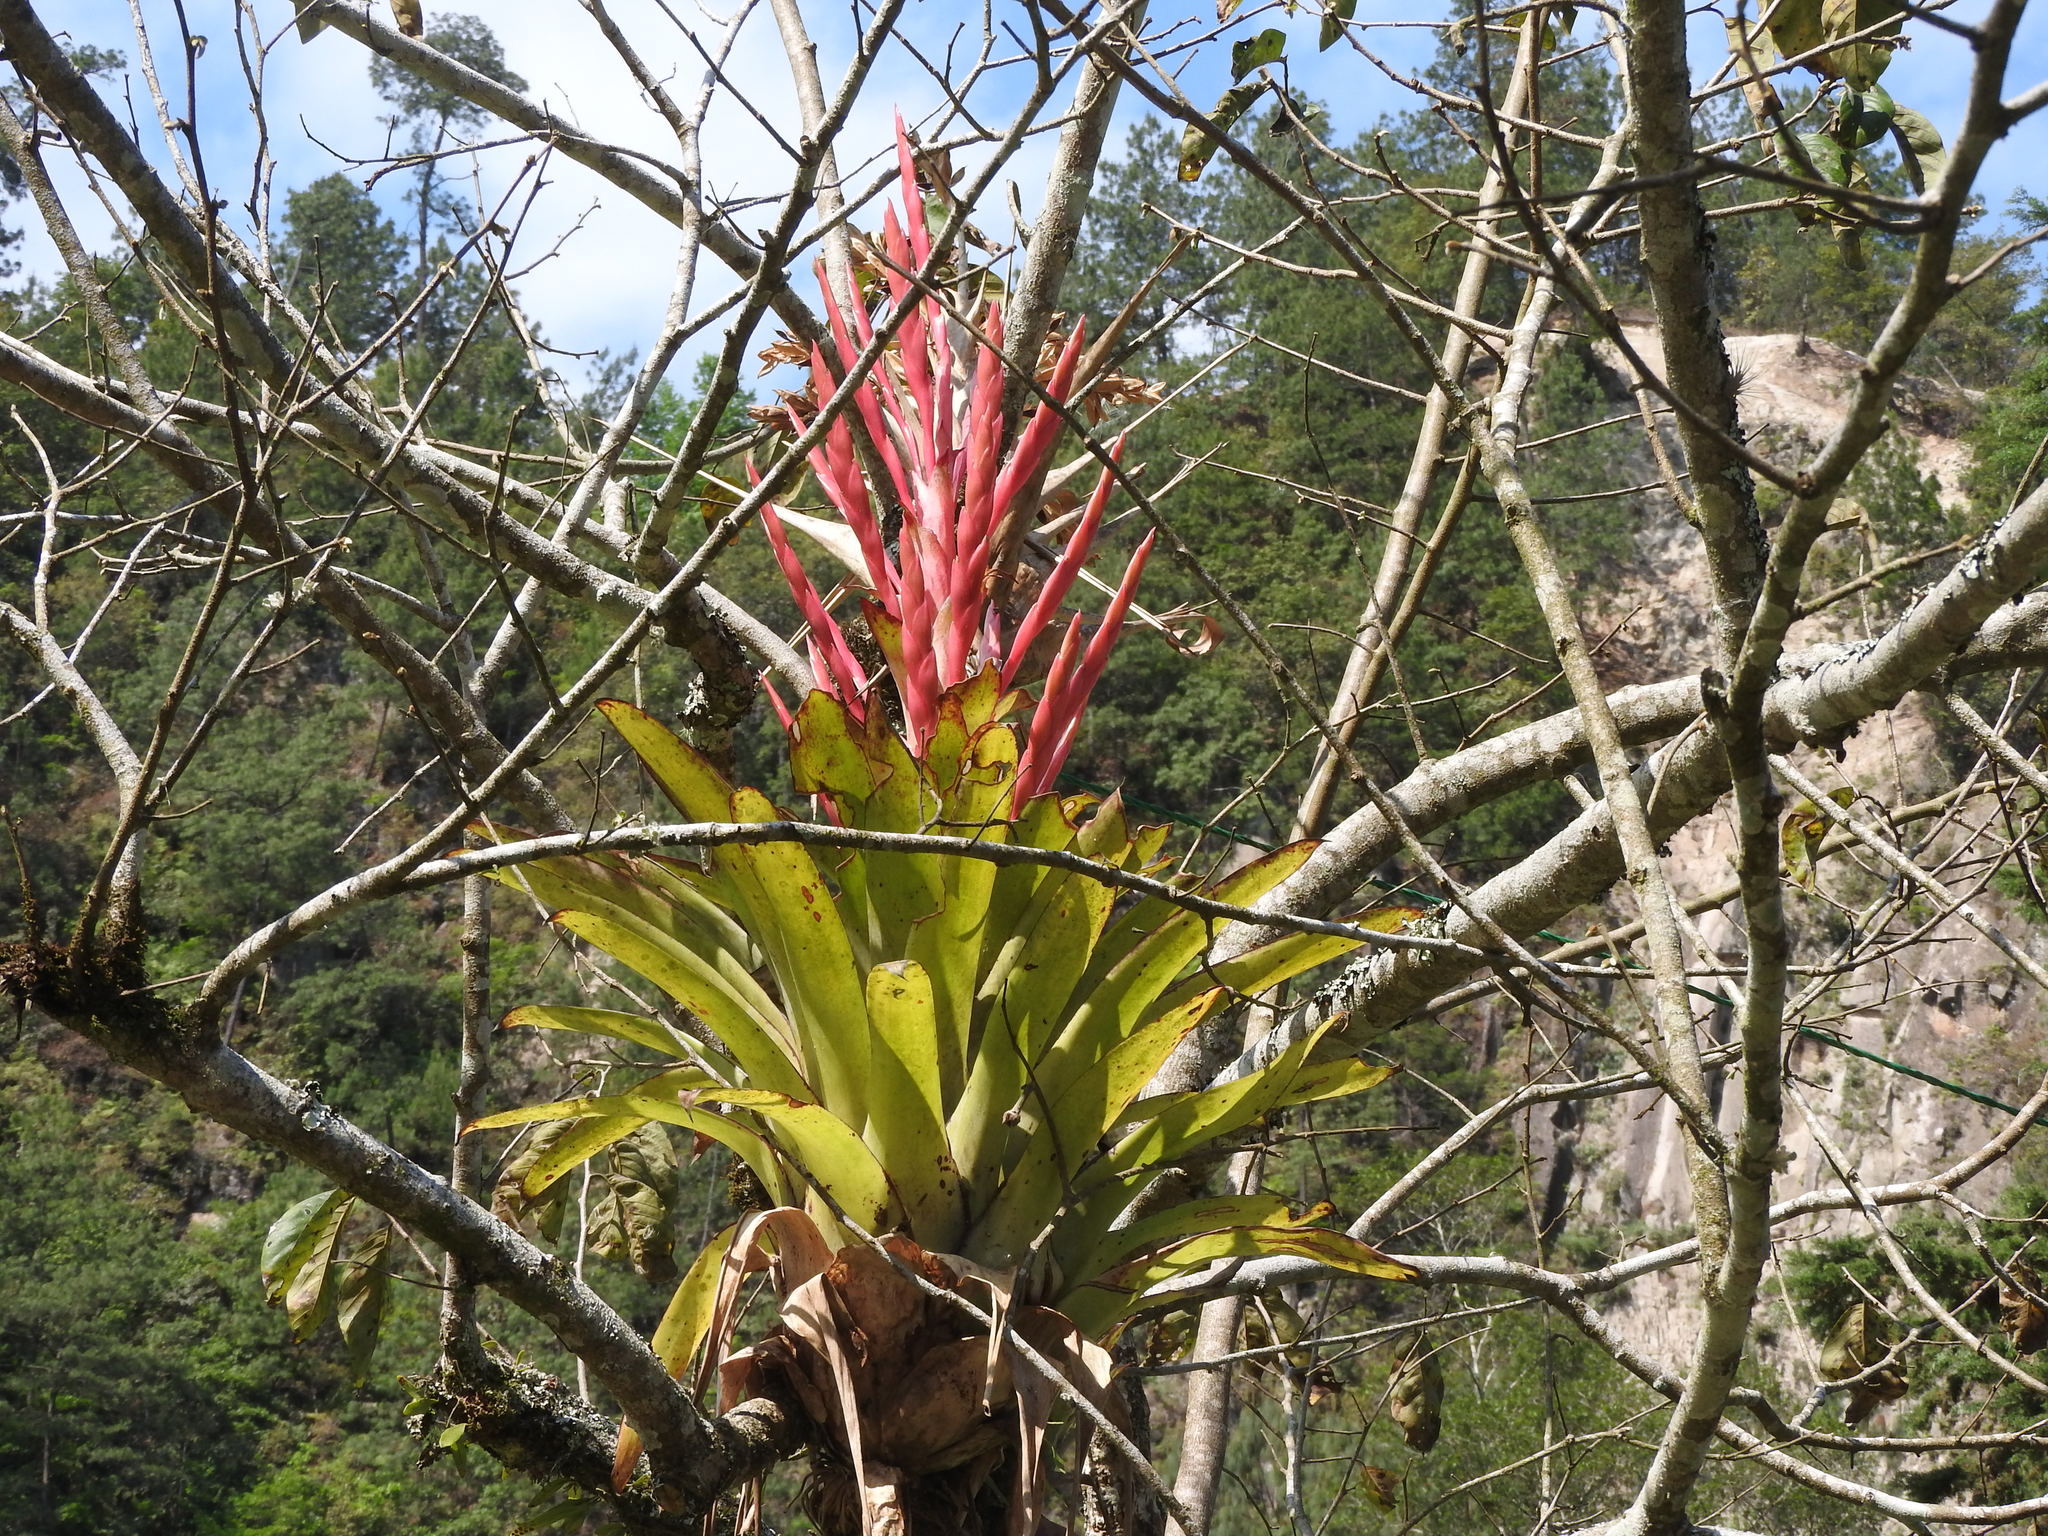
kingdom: Plantae
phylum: Tracheophyta
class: Liliopsida
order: Poales
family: Bromeliaceae
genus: Tillandsia
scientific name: Tillandsia deppeana
